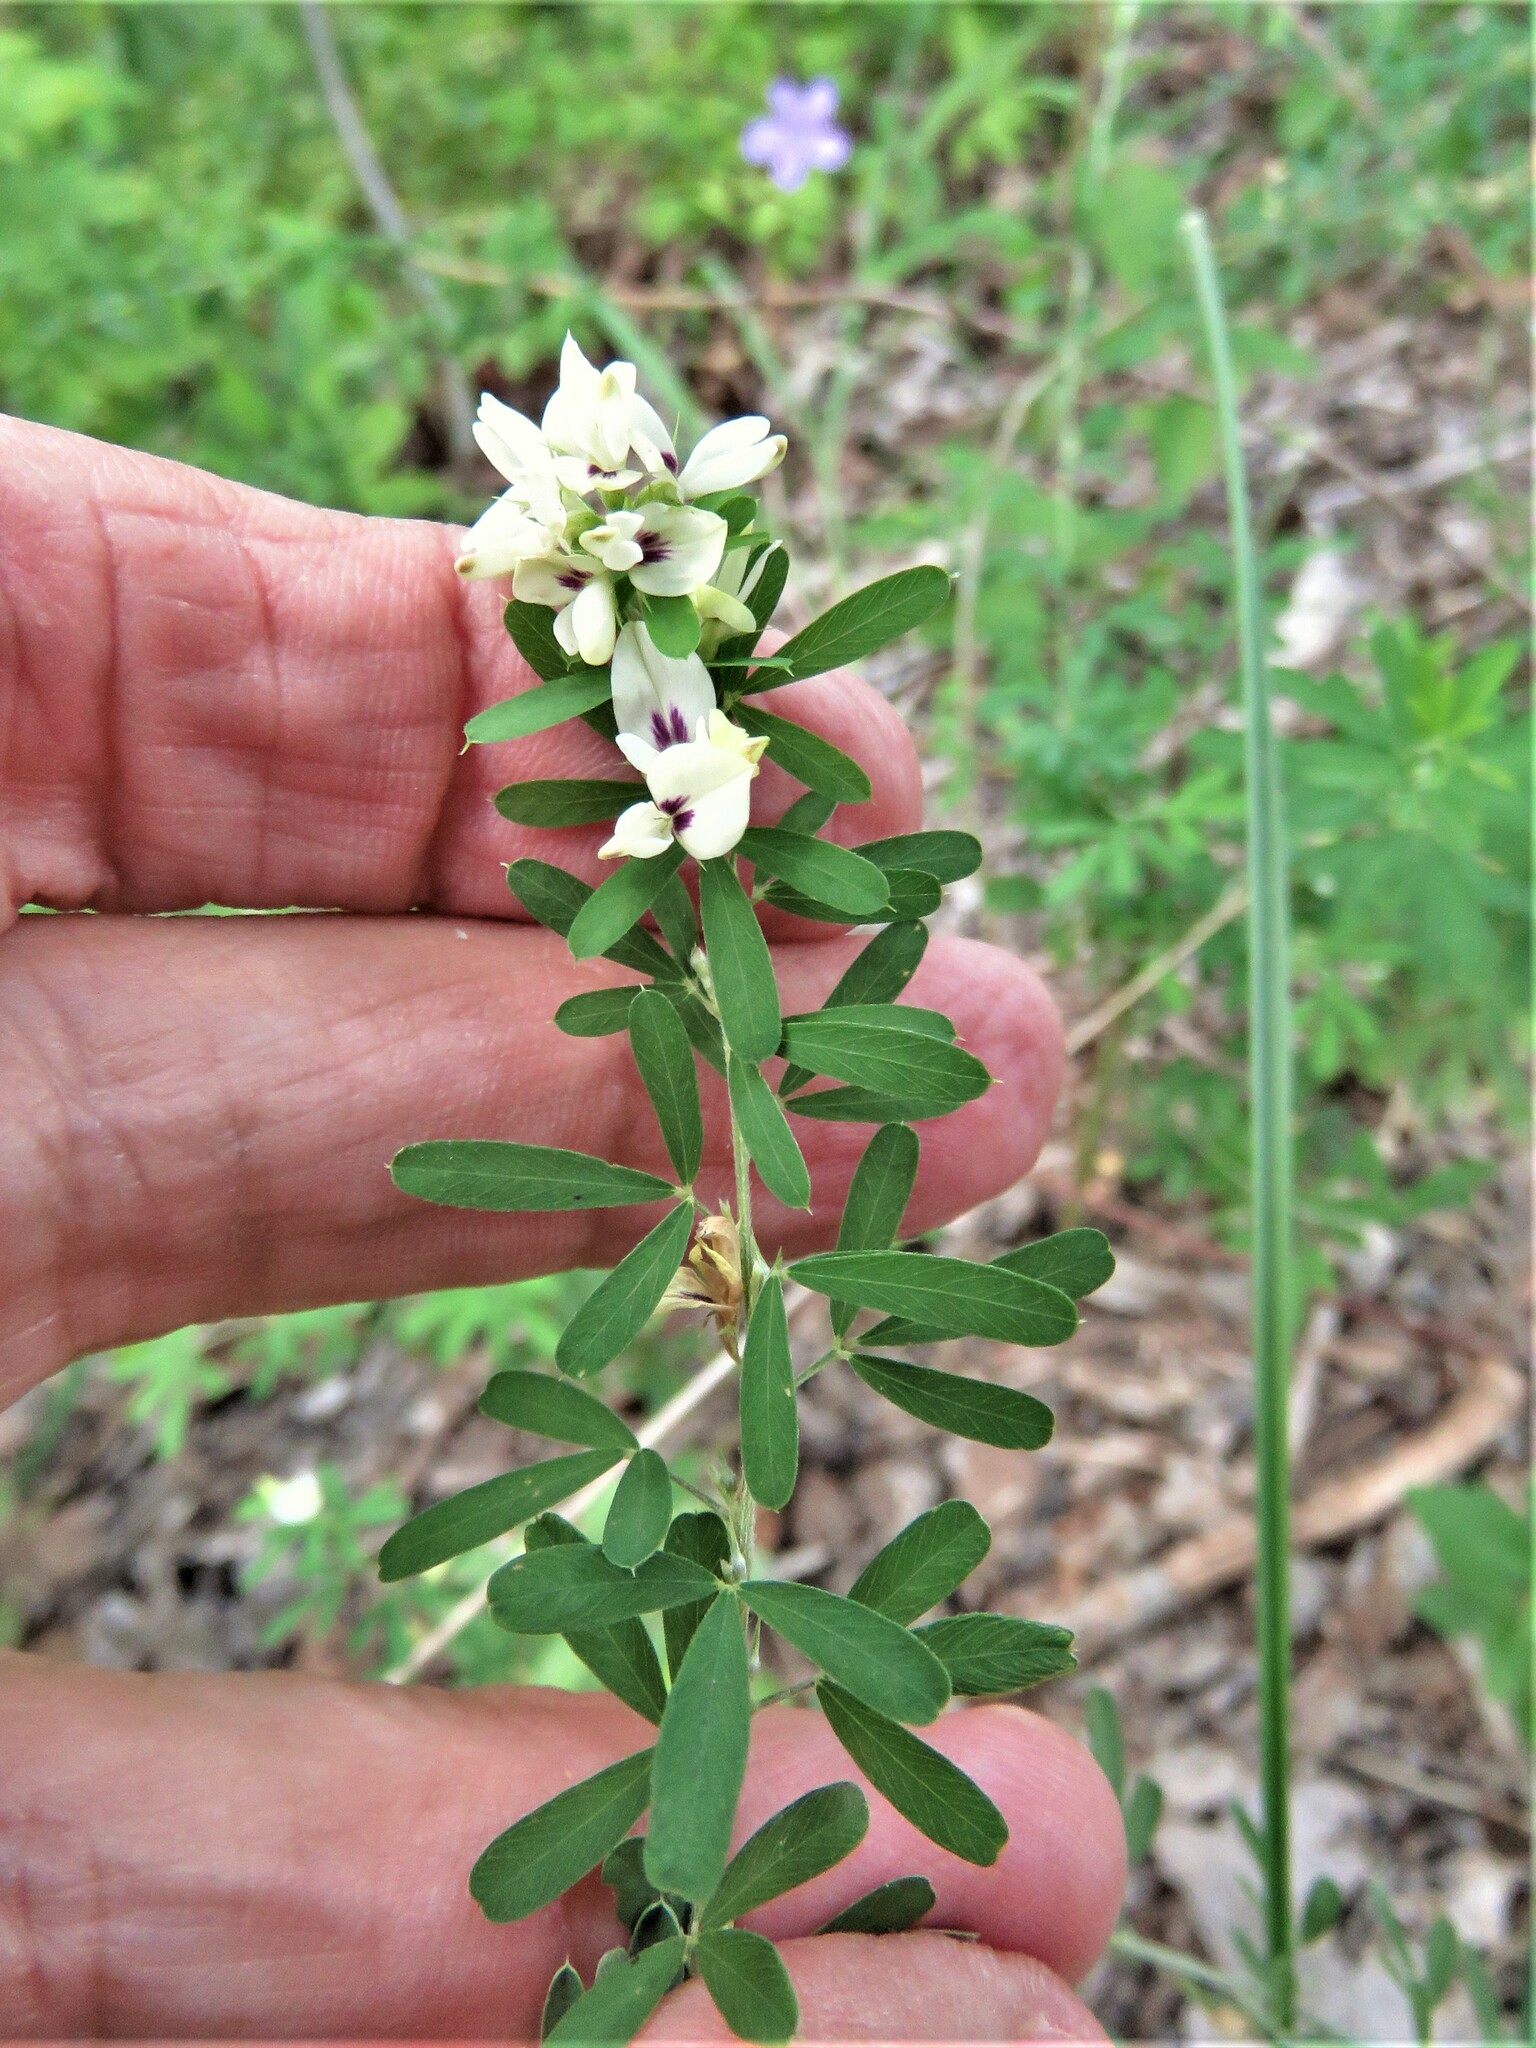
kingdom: Plantae
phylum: Tracheophyta
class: Magnoliopsida
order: Fabales
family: Fabaceae
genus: Lespedeza
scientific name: Lespedeza cuneata
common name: Chinese bush-clover
